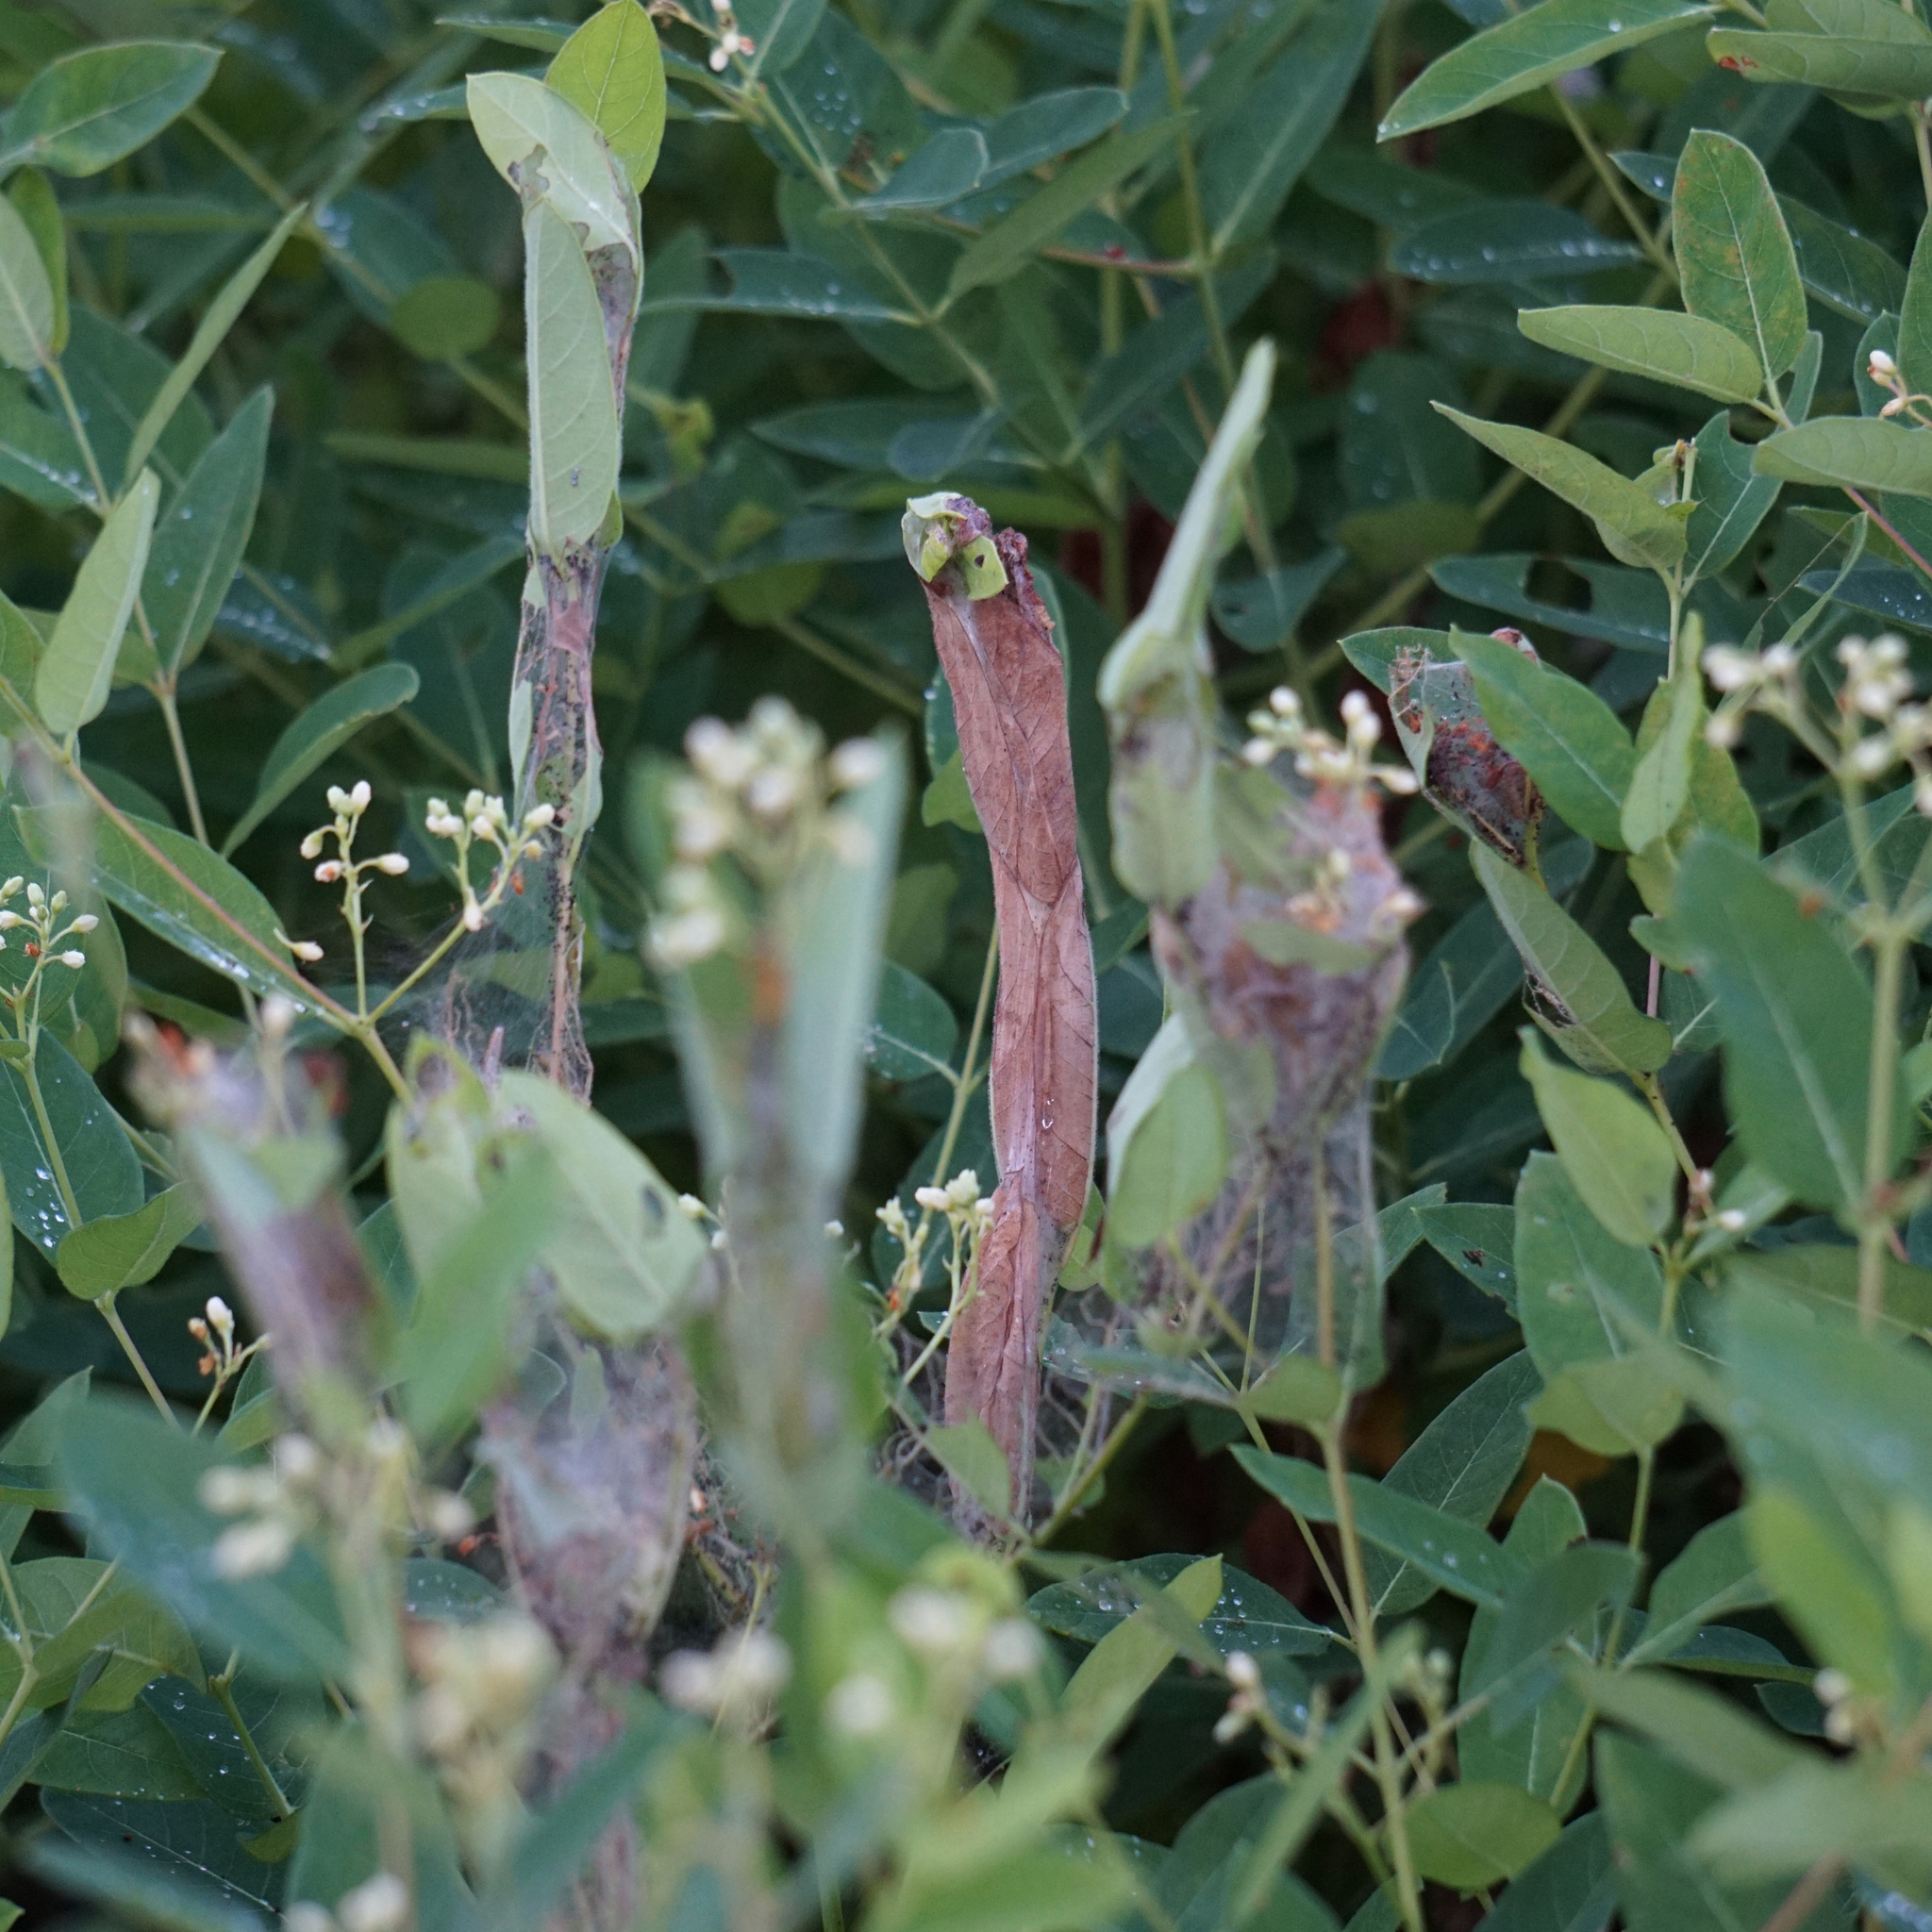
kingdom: Animalia
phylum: Arthropoda
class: Insecta
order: Lepidoptera
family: Crambidae
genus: Saucrobotys
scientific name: Saucrobotys futilalis
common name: Dogbane saucrobotys moth
